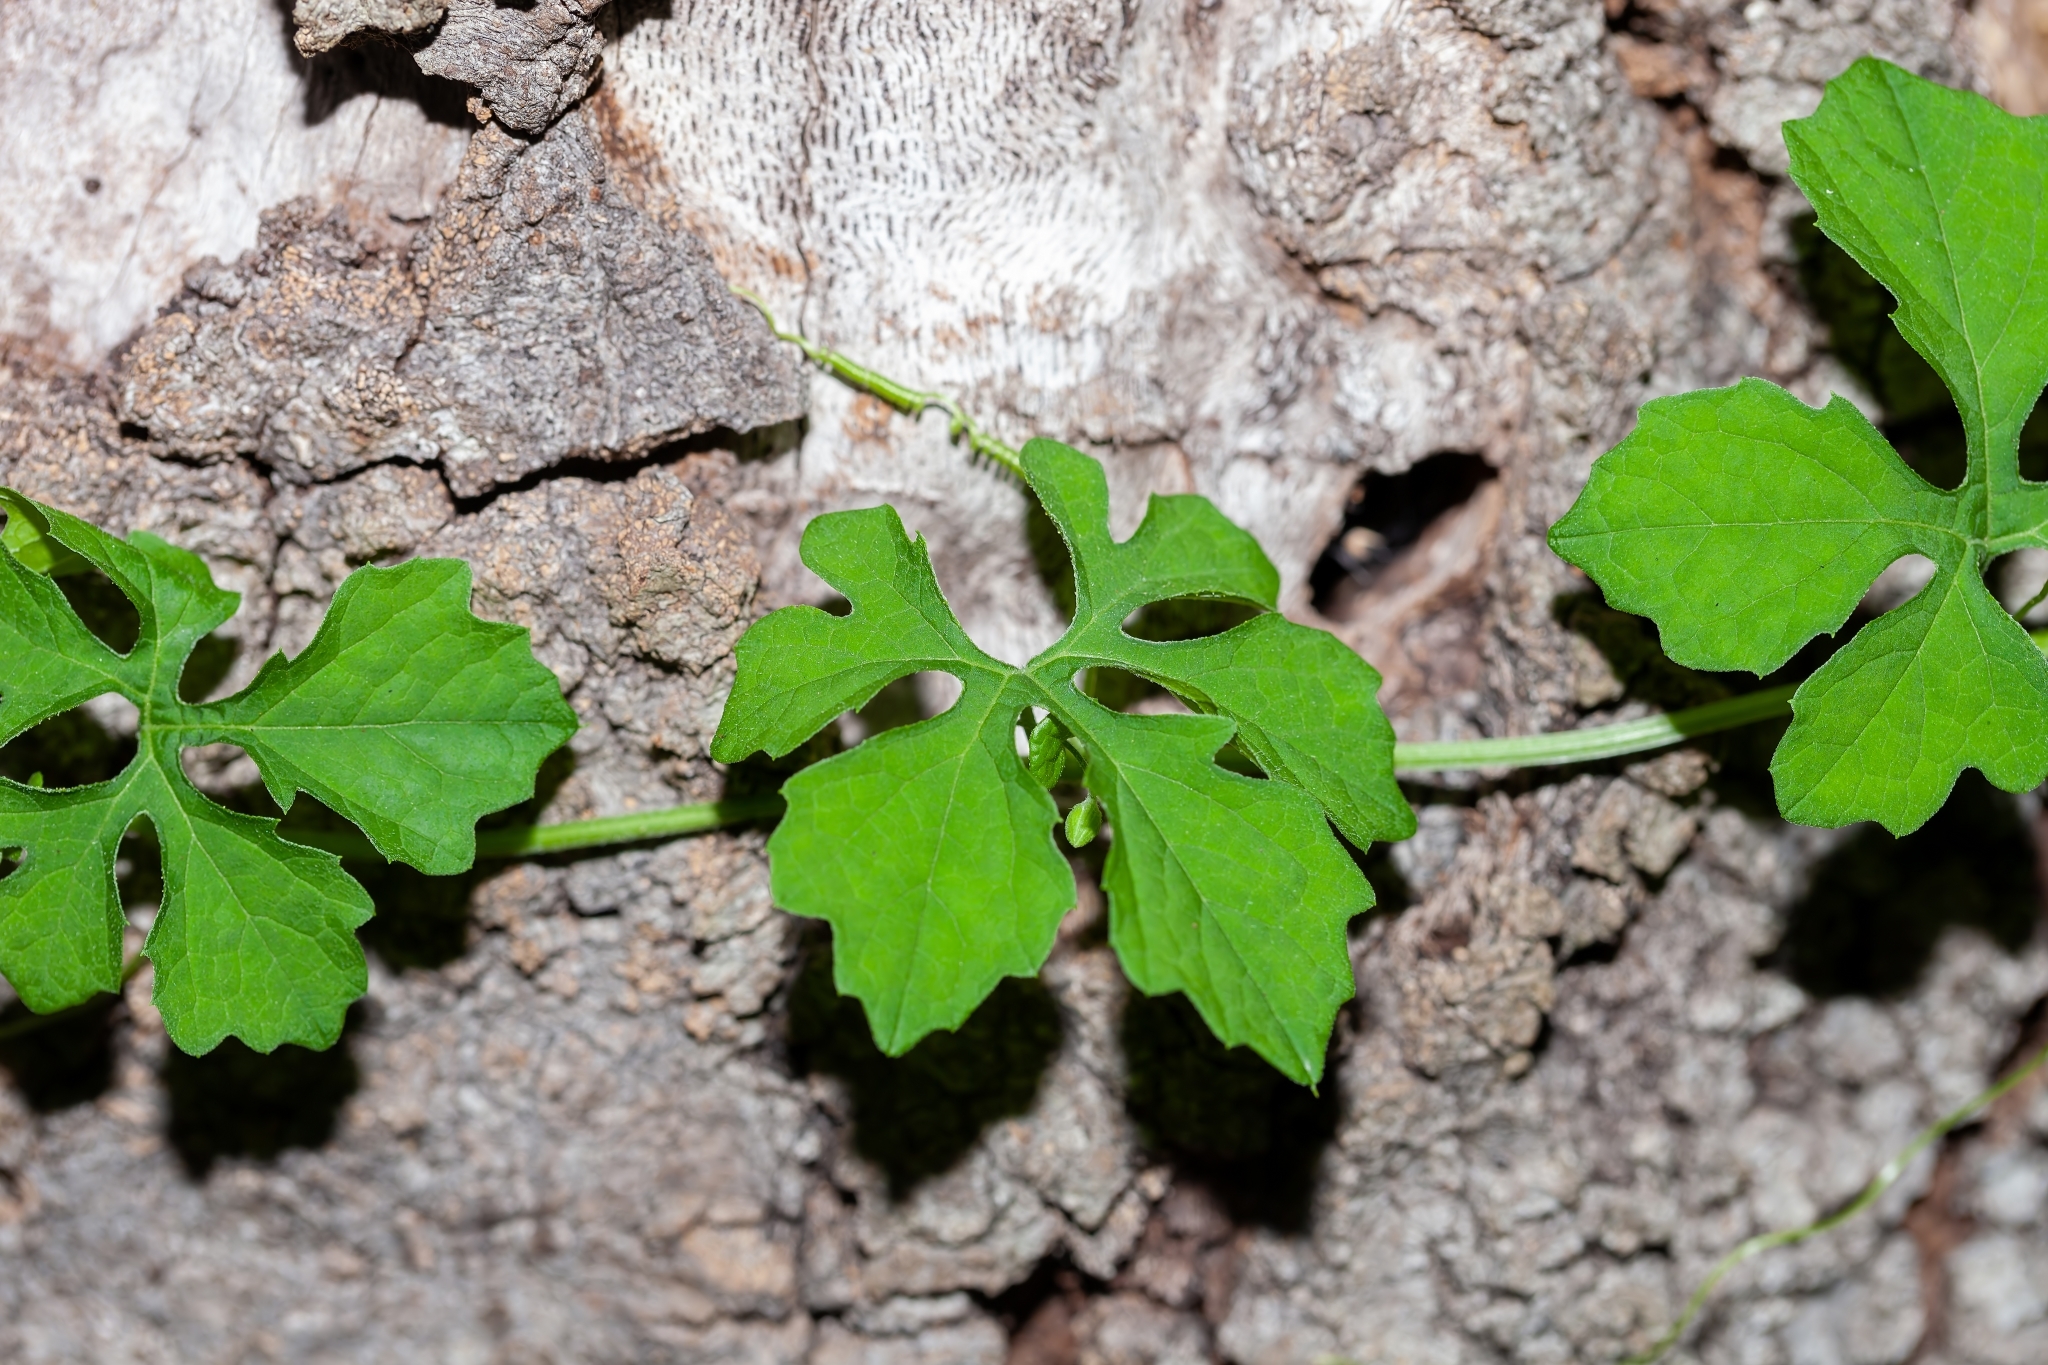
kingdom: Plantae
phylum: Tracheophyta
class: Magnoliopsida
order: Cucurbitales
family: Cucurbitaceae
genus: Momordica
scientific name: Momordica charantia
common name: Balsampear
